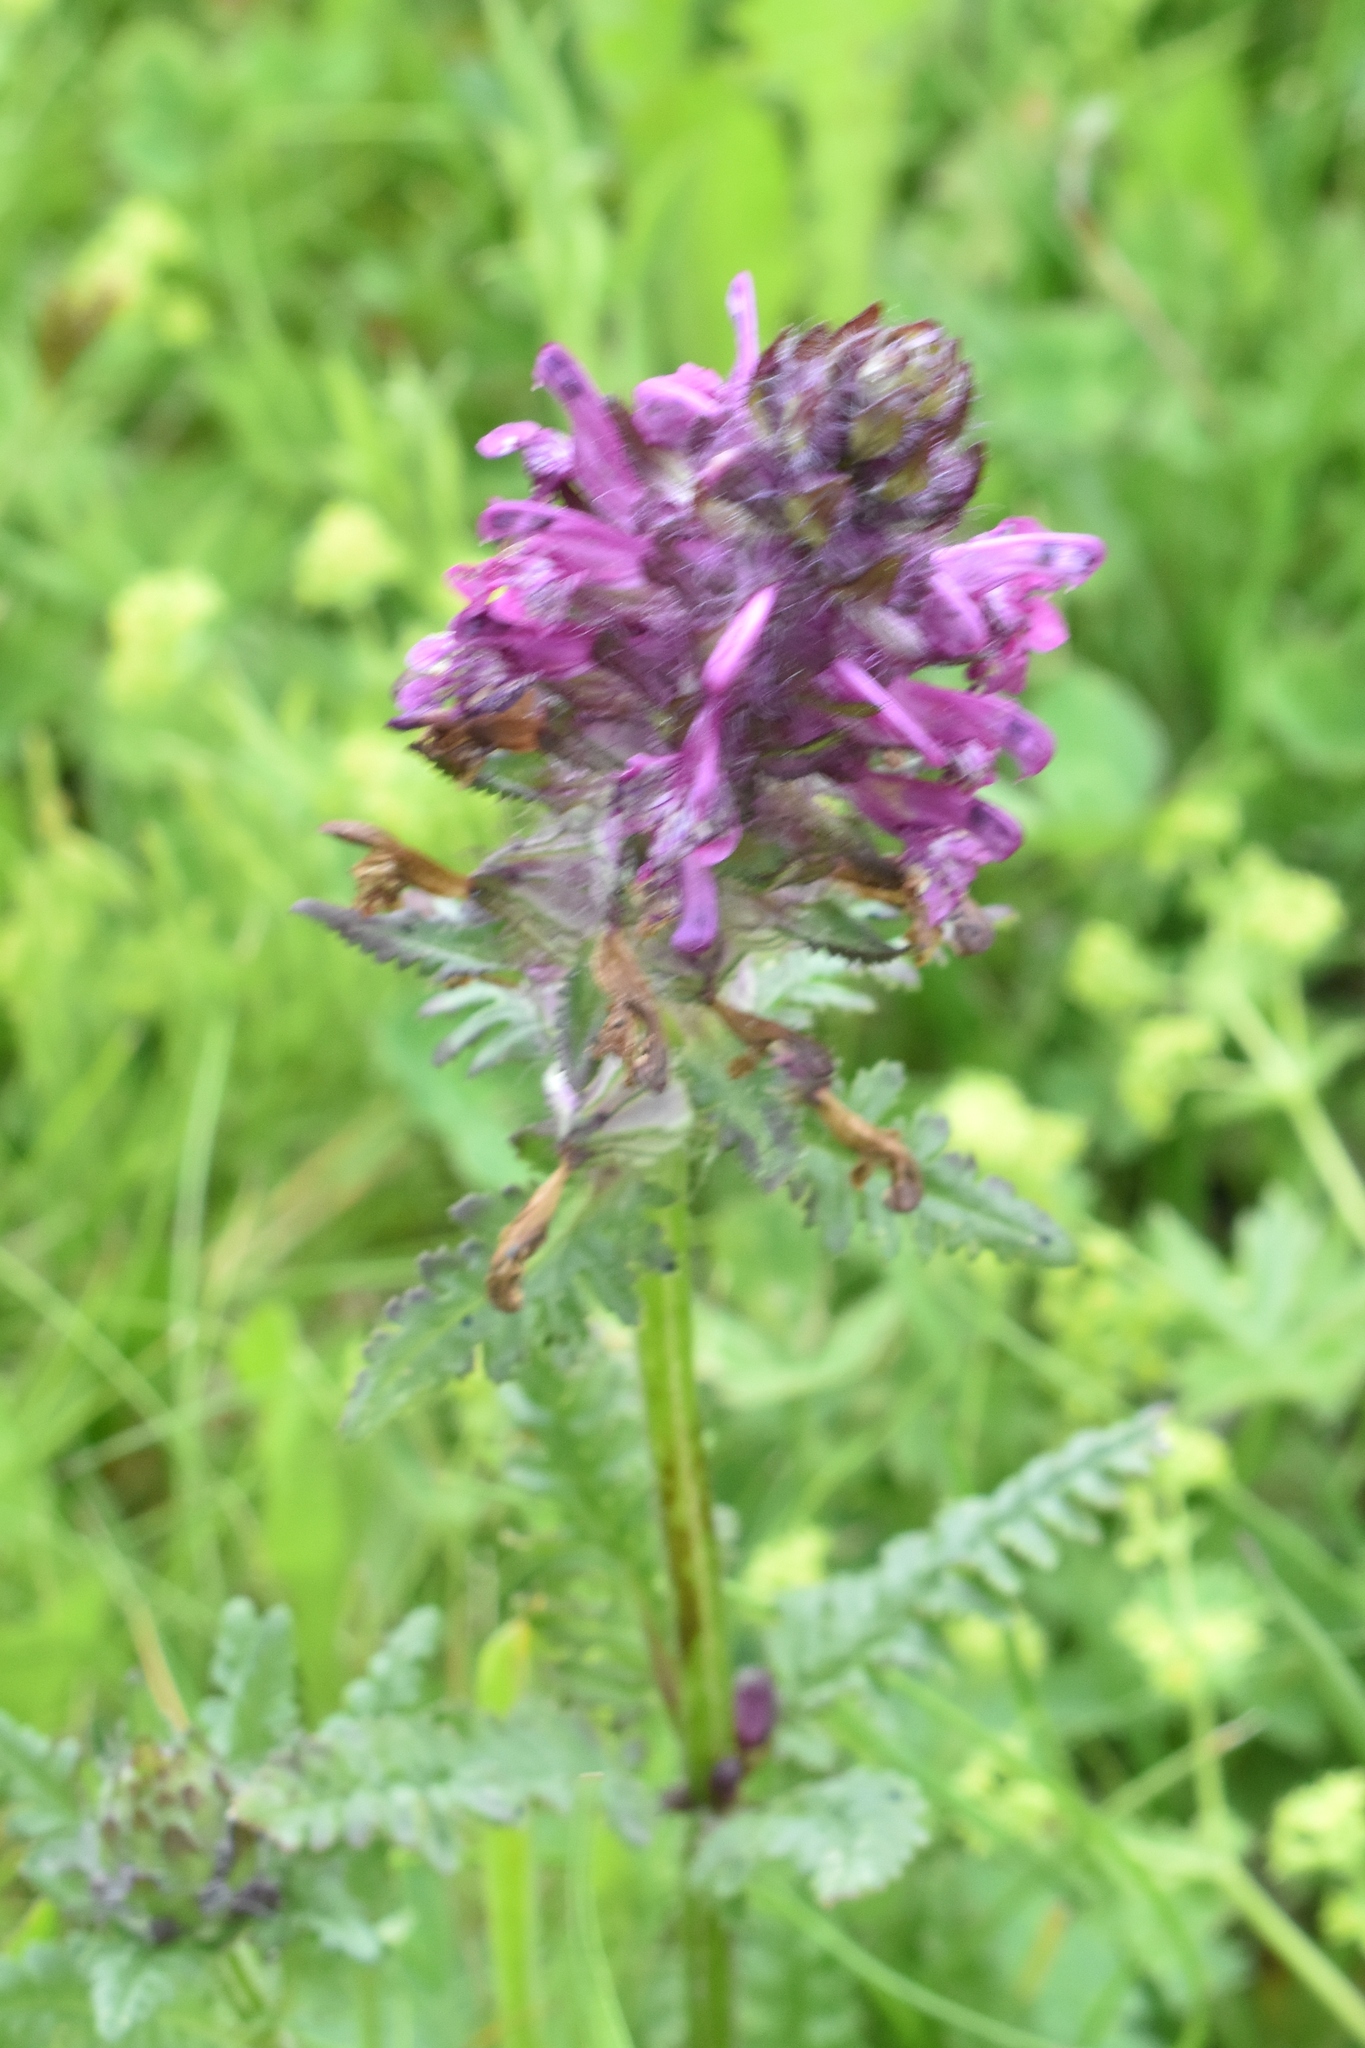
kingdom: Plantae
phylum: Tracheophyta
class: Magnoliopsida
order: Lamiales
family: Orobanchaceae
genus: Pedicularis
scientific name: Pedicularis verticillata
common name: Whorled lousewort
